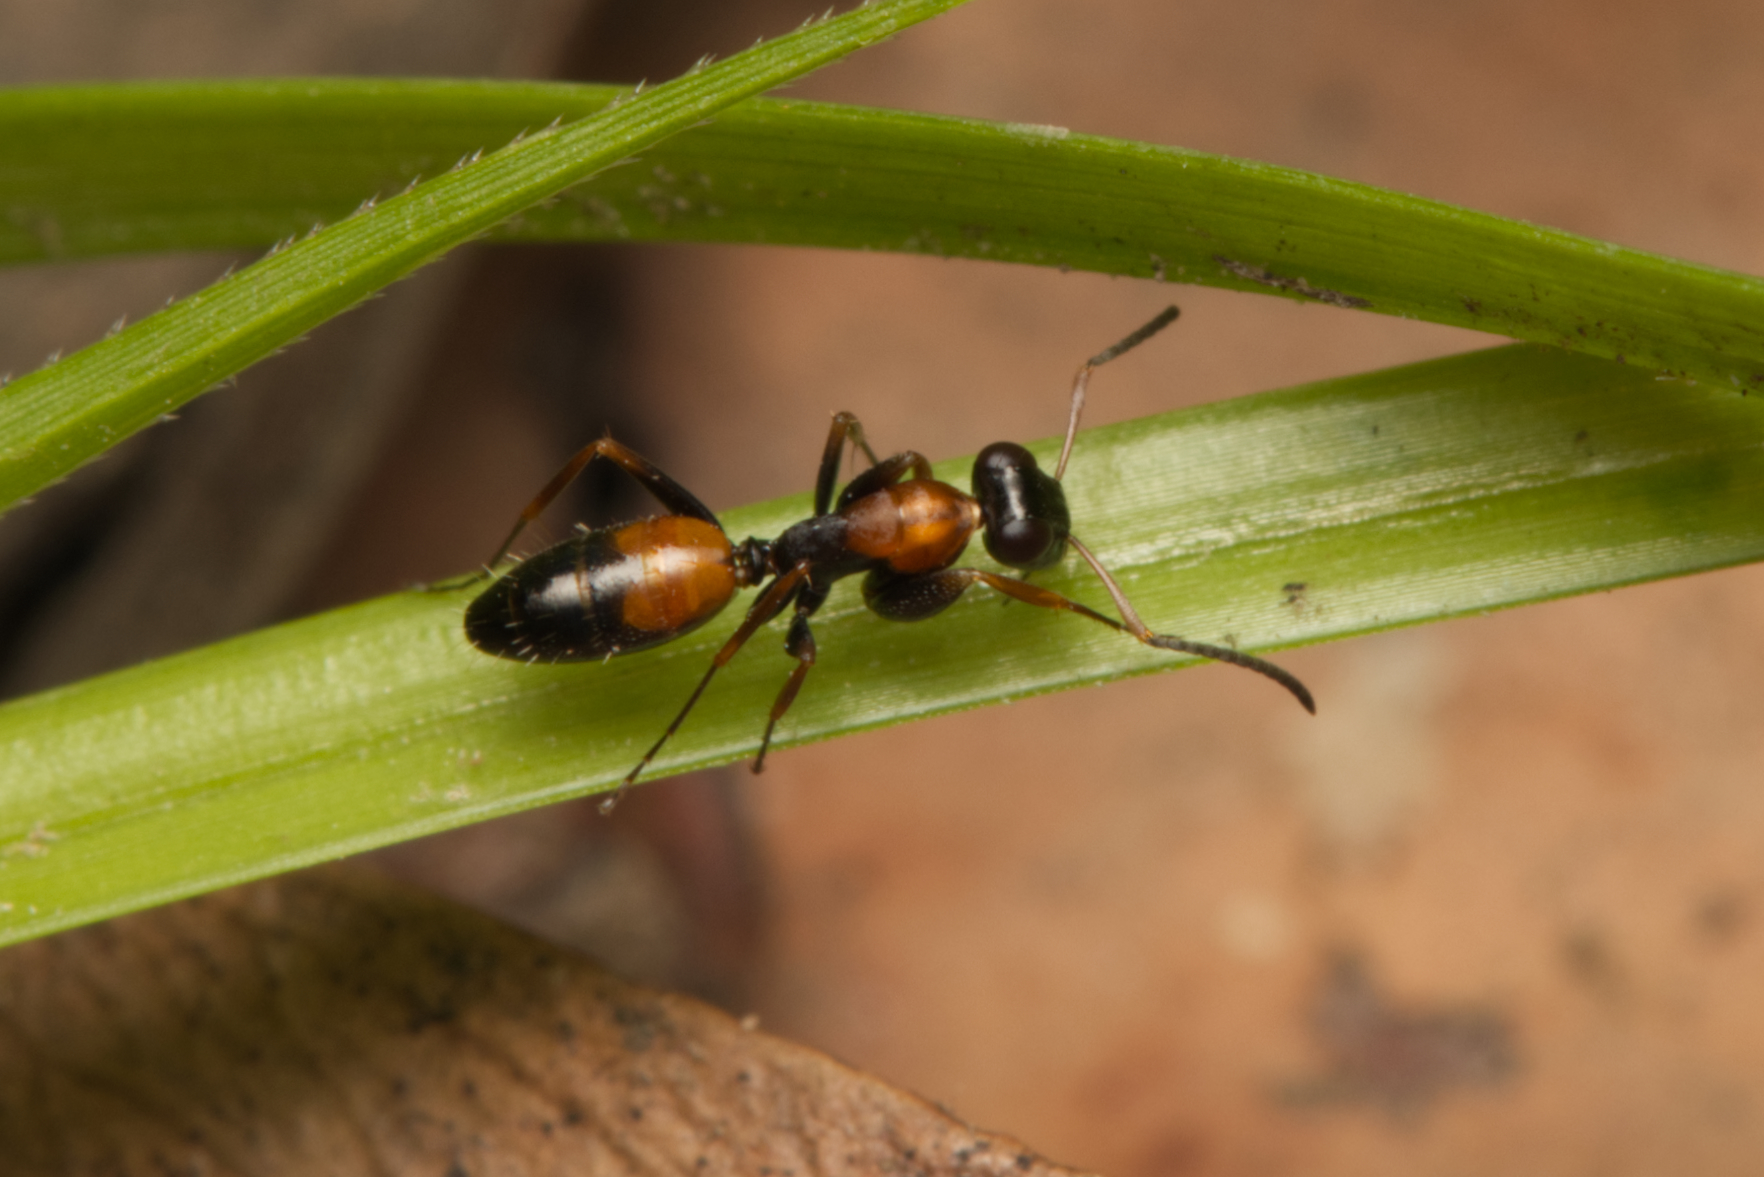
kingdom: Animalia
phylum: Arthropoda
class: Insecta
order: Hymenoptera
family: Formicidae
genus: Opisthopsis
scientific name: Opisthopsis pictus
